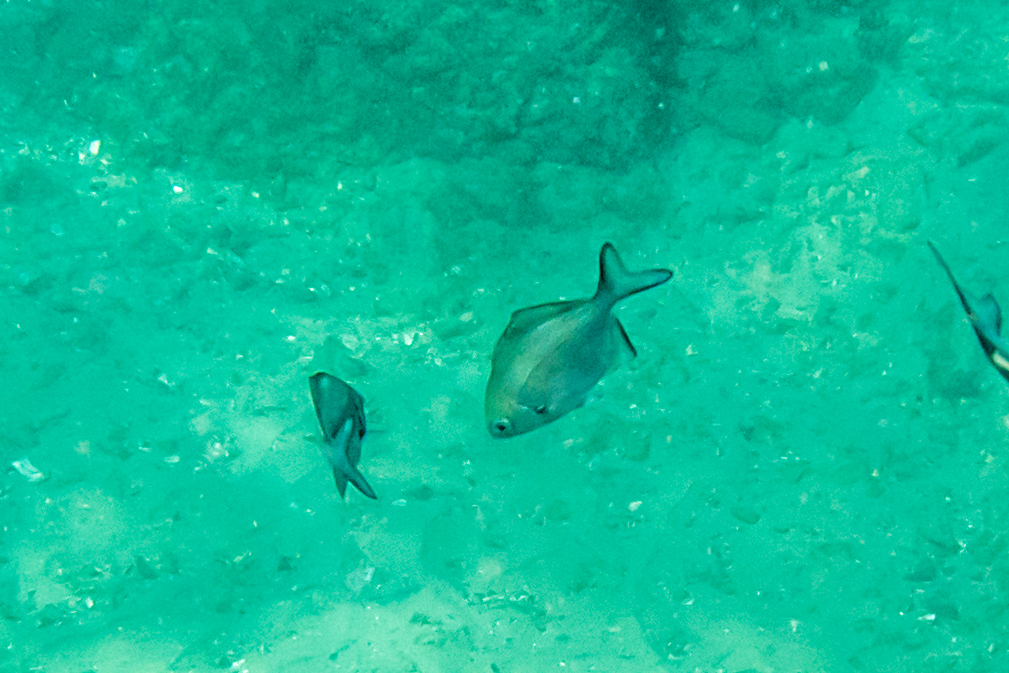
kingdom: Animalia
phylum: Chordata
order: Perciformes
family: Kyphosidae
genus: Scorpis
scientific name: Scorpis lineolata
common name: Sweep
